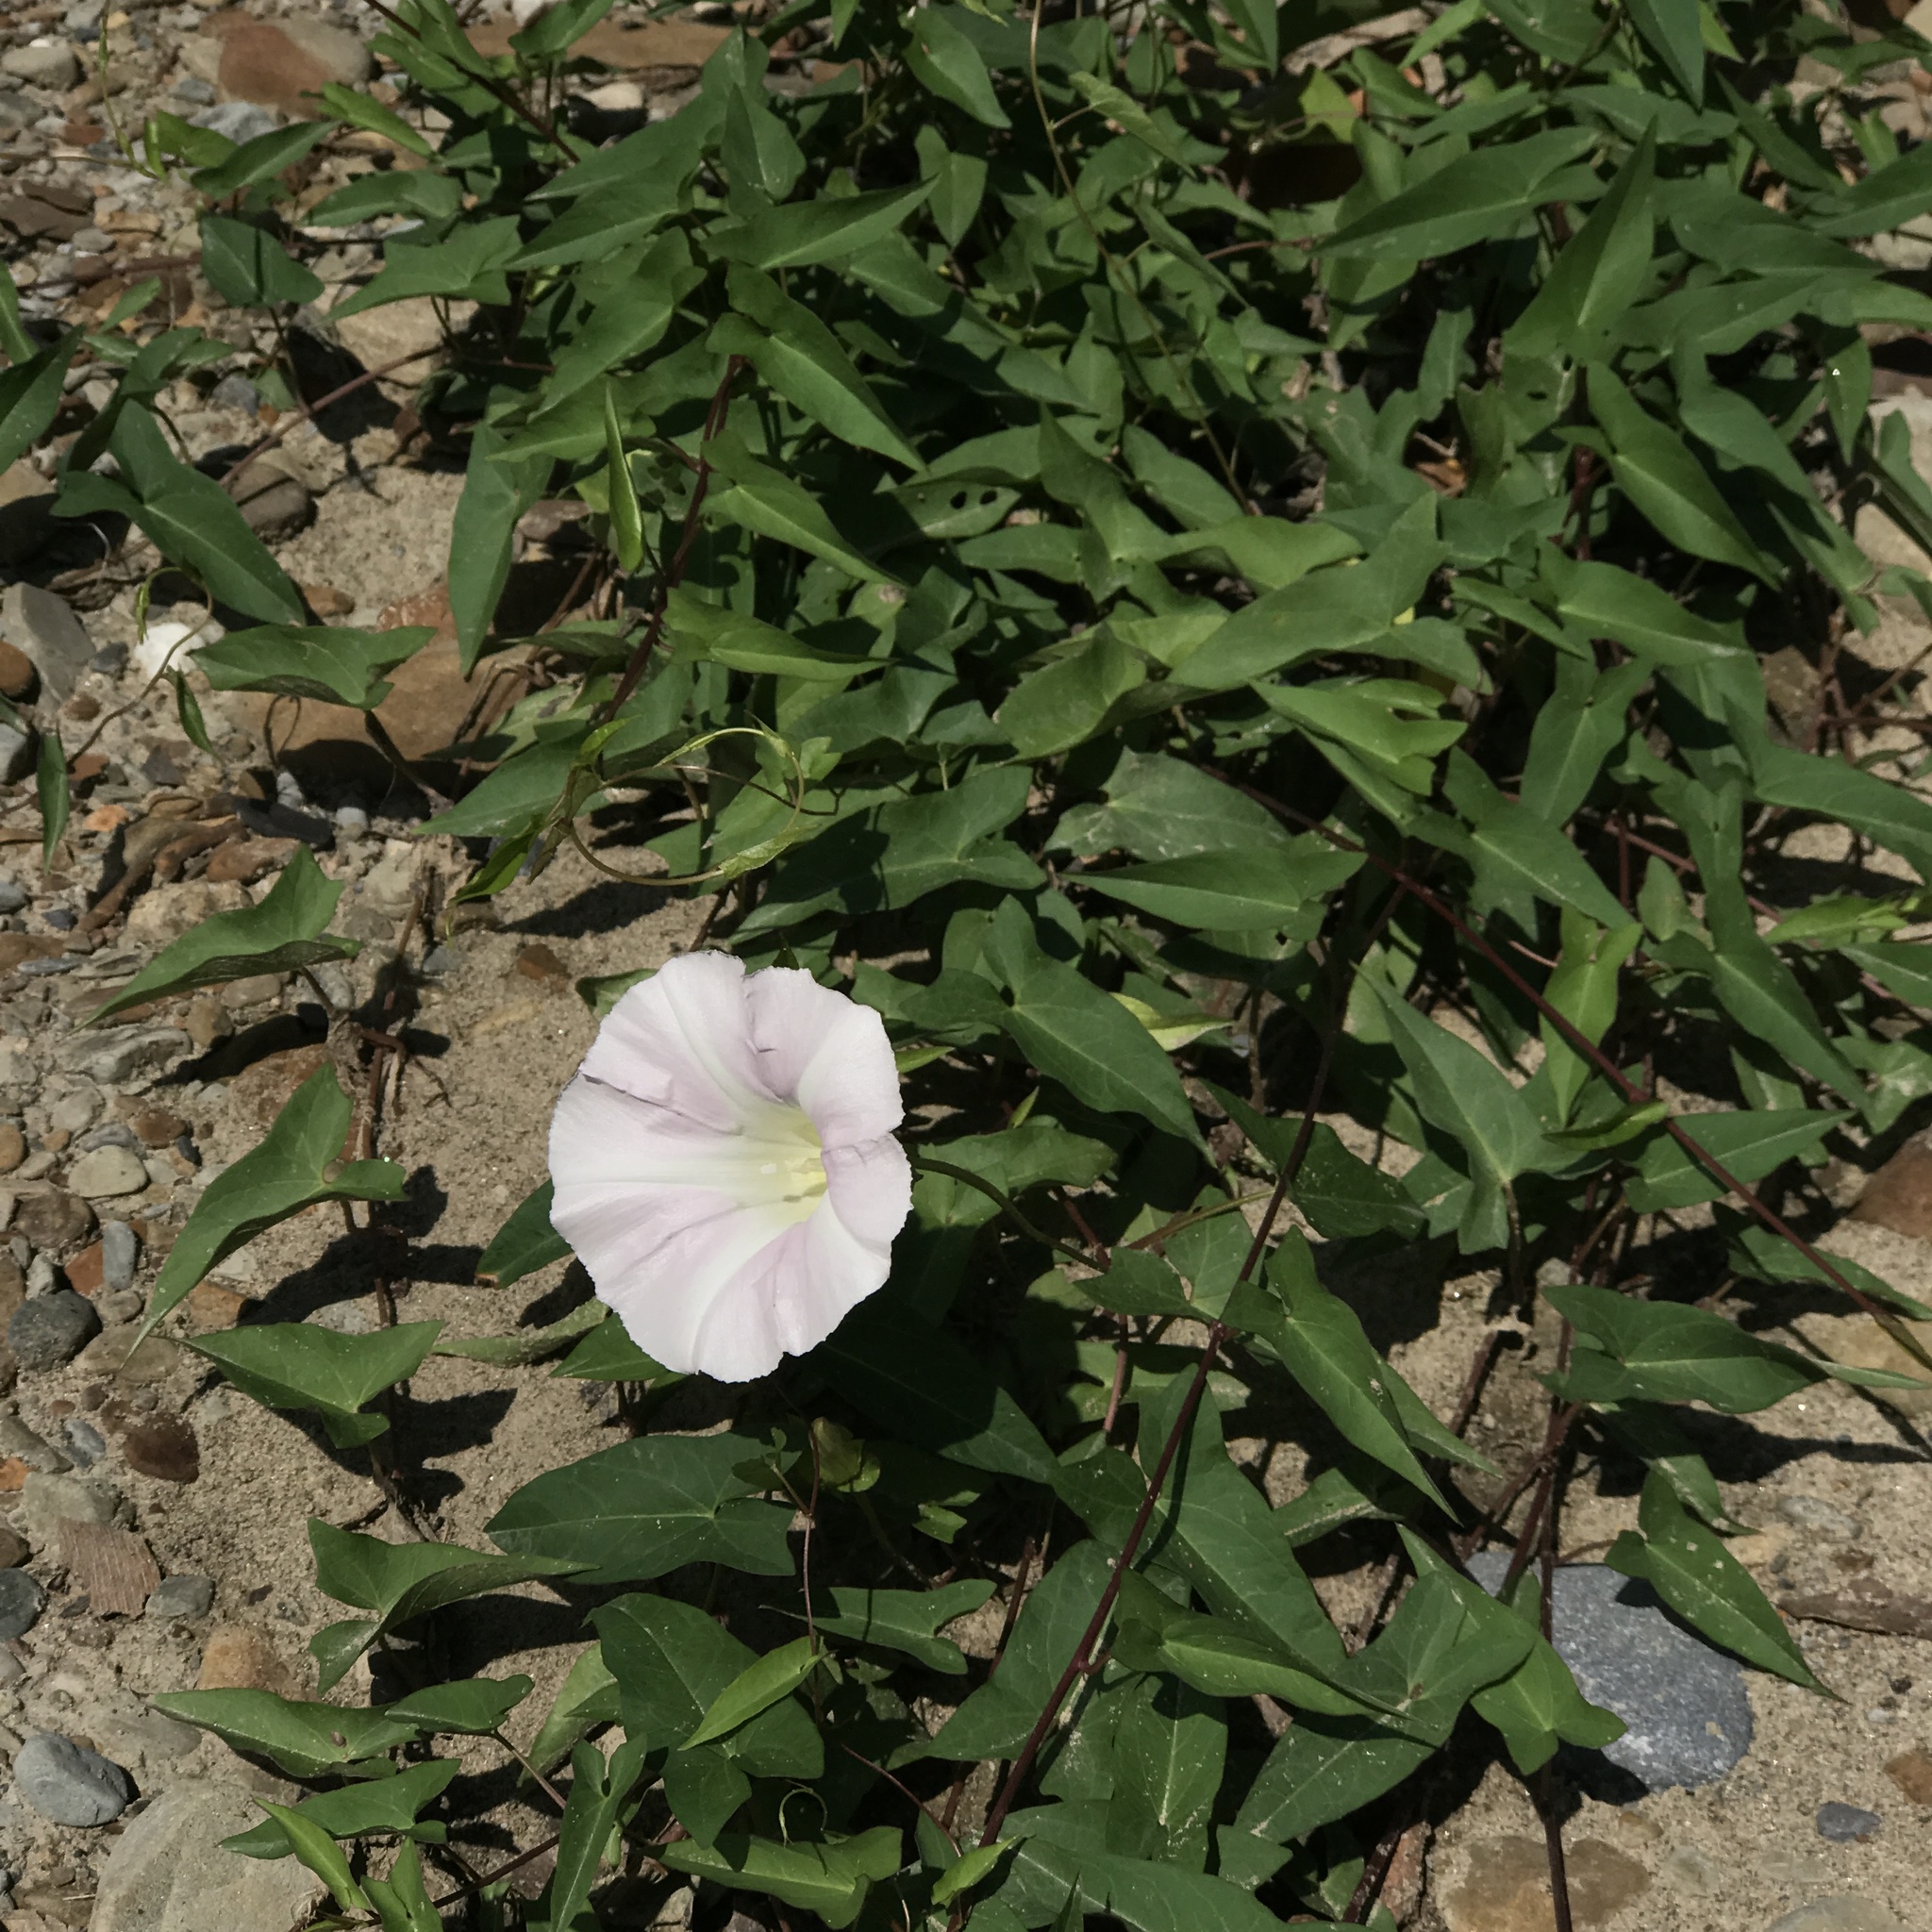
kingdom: Plantae
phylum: Tracheophyta
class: Magnoliopsida
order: Solanales
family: Convolvulaceae
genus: Calystegia
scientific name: Calystegia sepium
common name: Hedge bindweed
